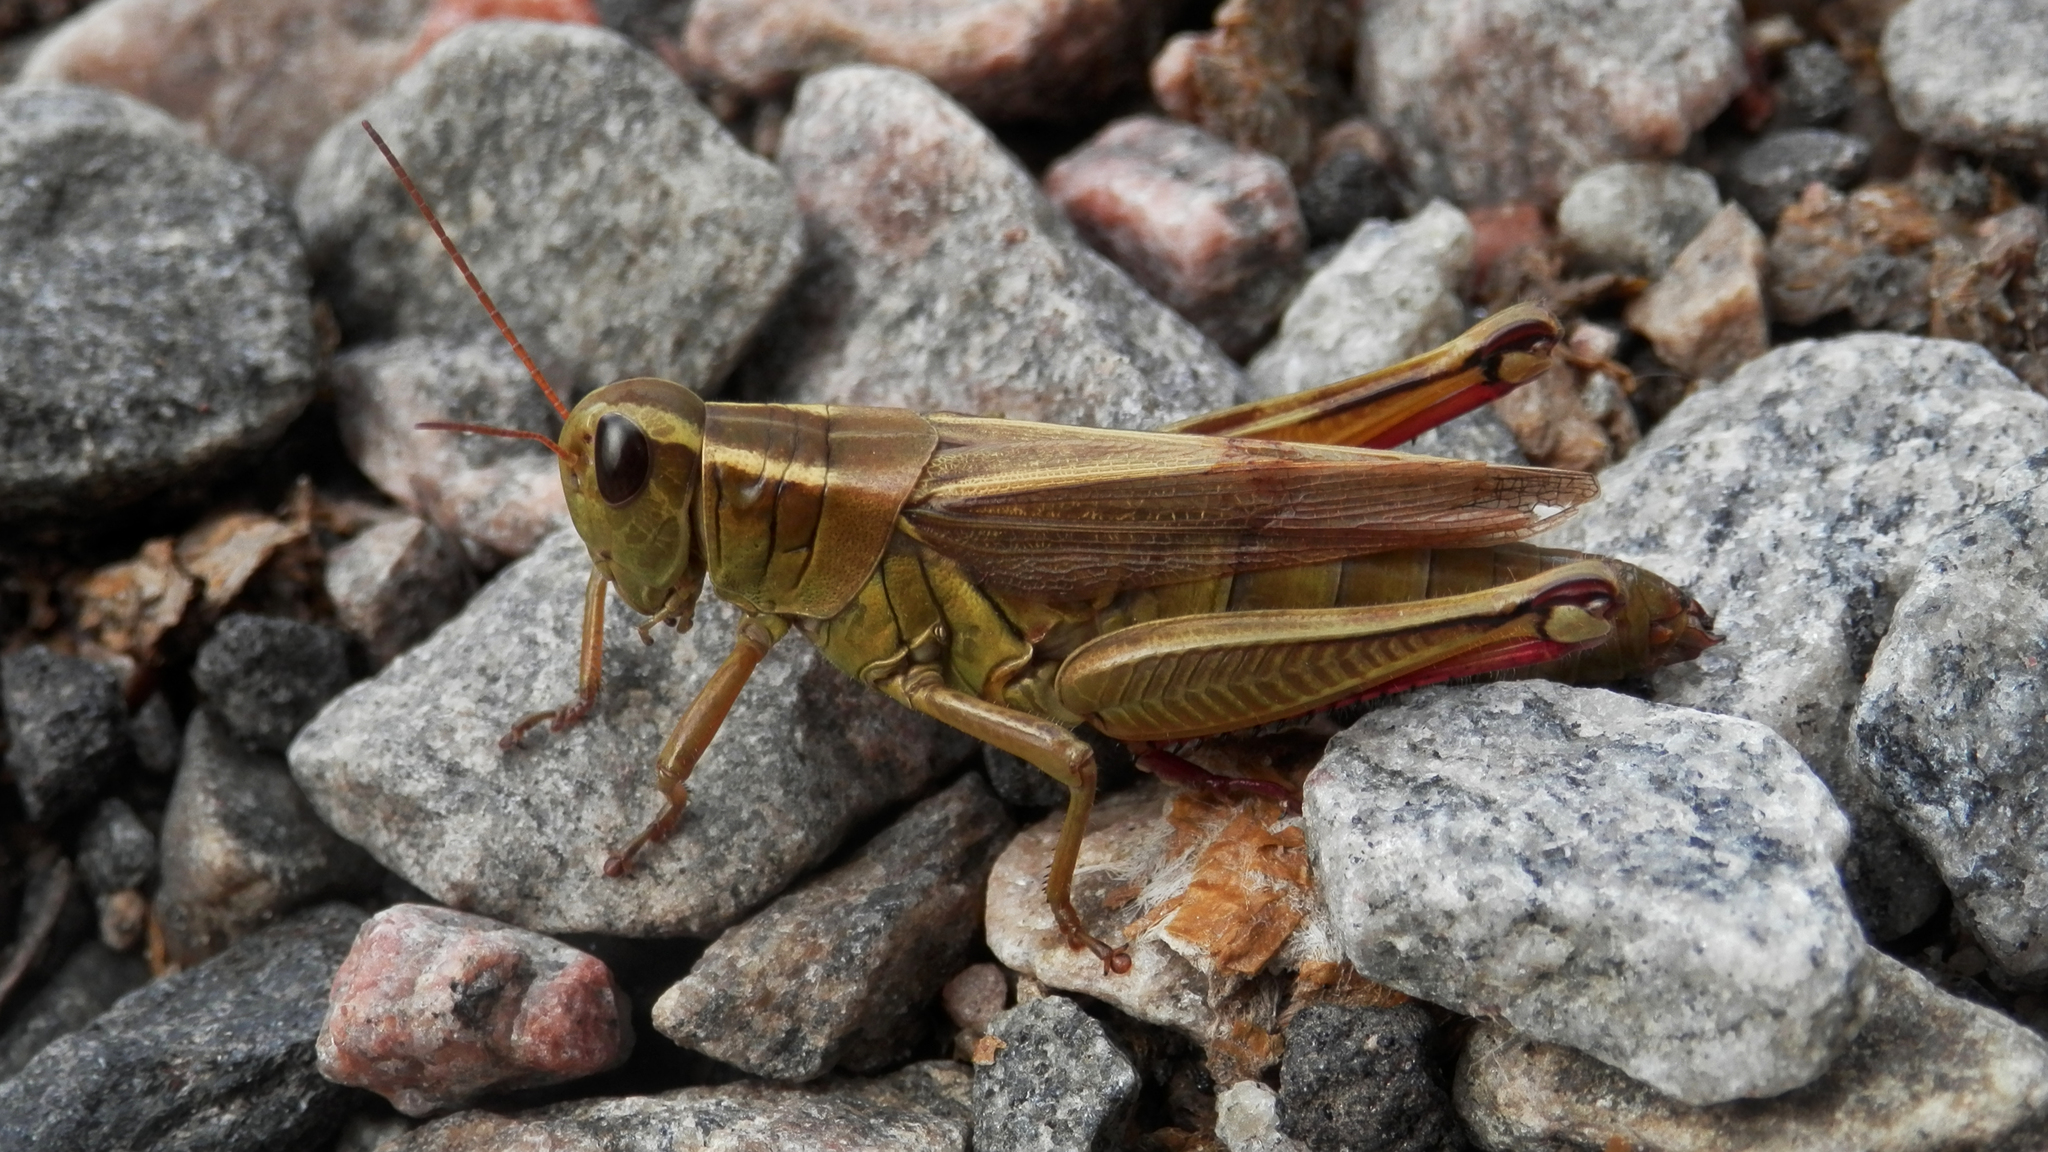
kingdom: Animalia
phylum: Arthropoda
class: Insecta
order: Orthoptera
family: Acrididae
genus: Melanoplus
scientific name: Melanoplus bivittatus
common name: Two-striped grasshopper
